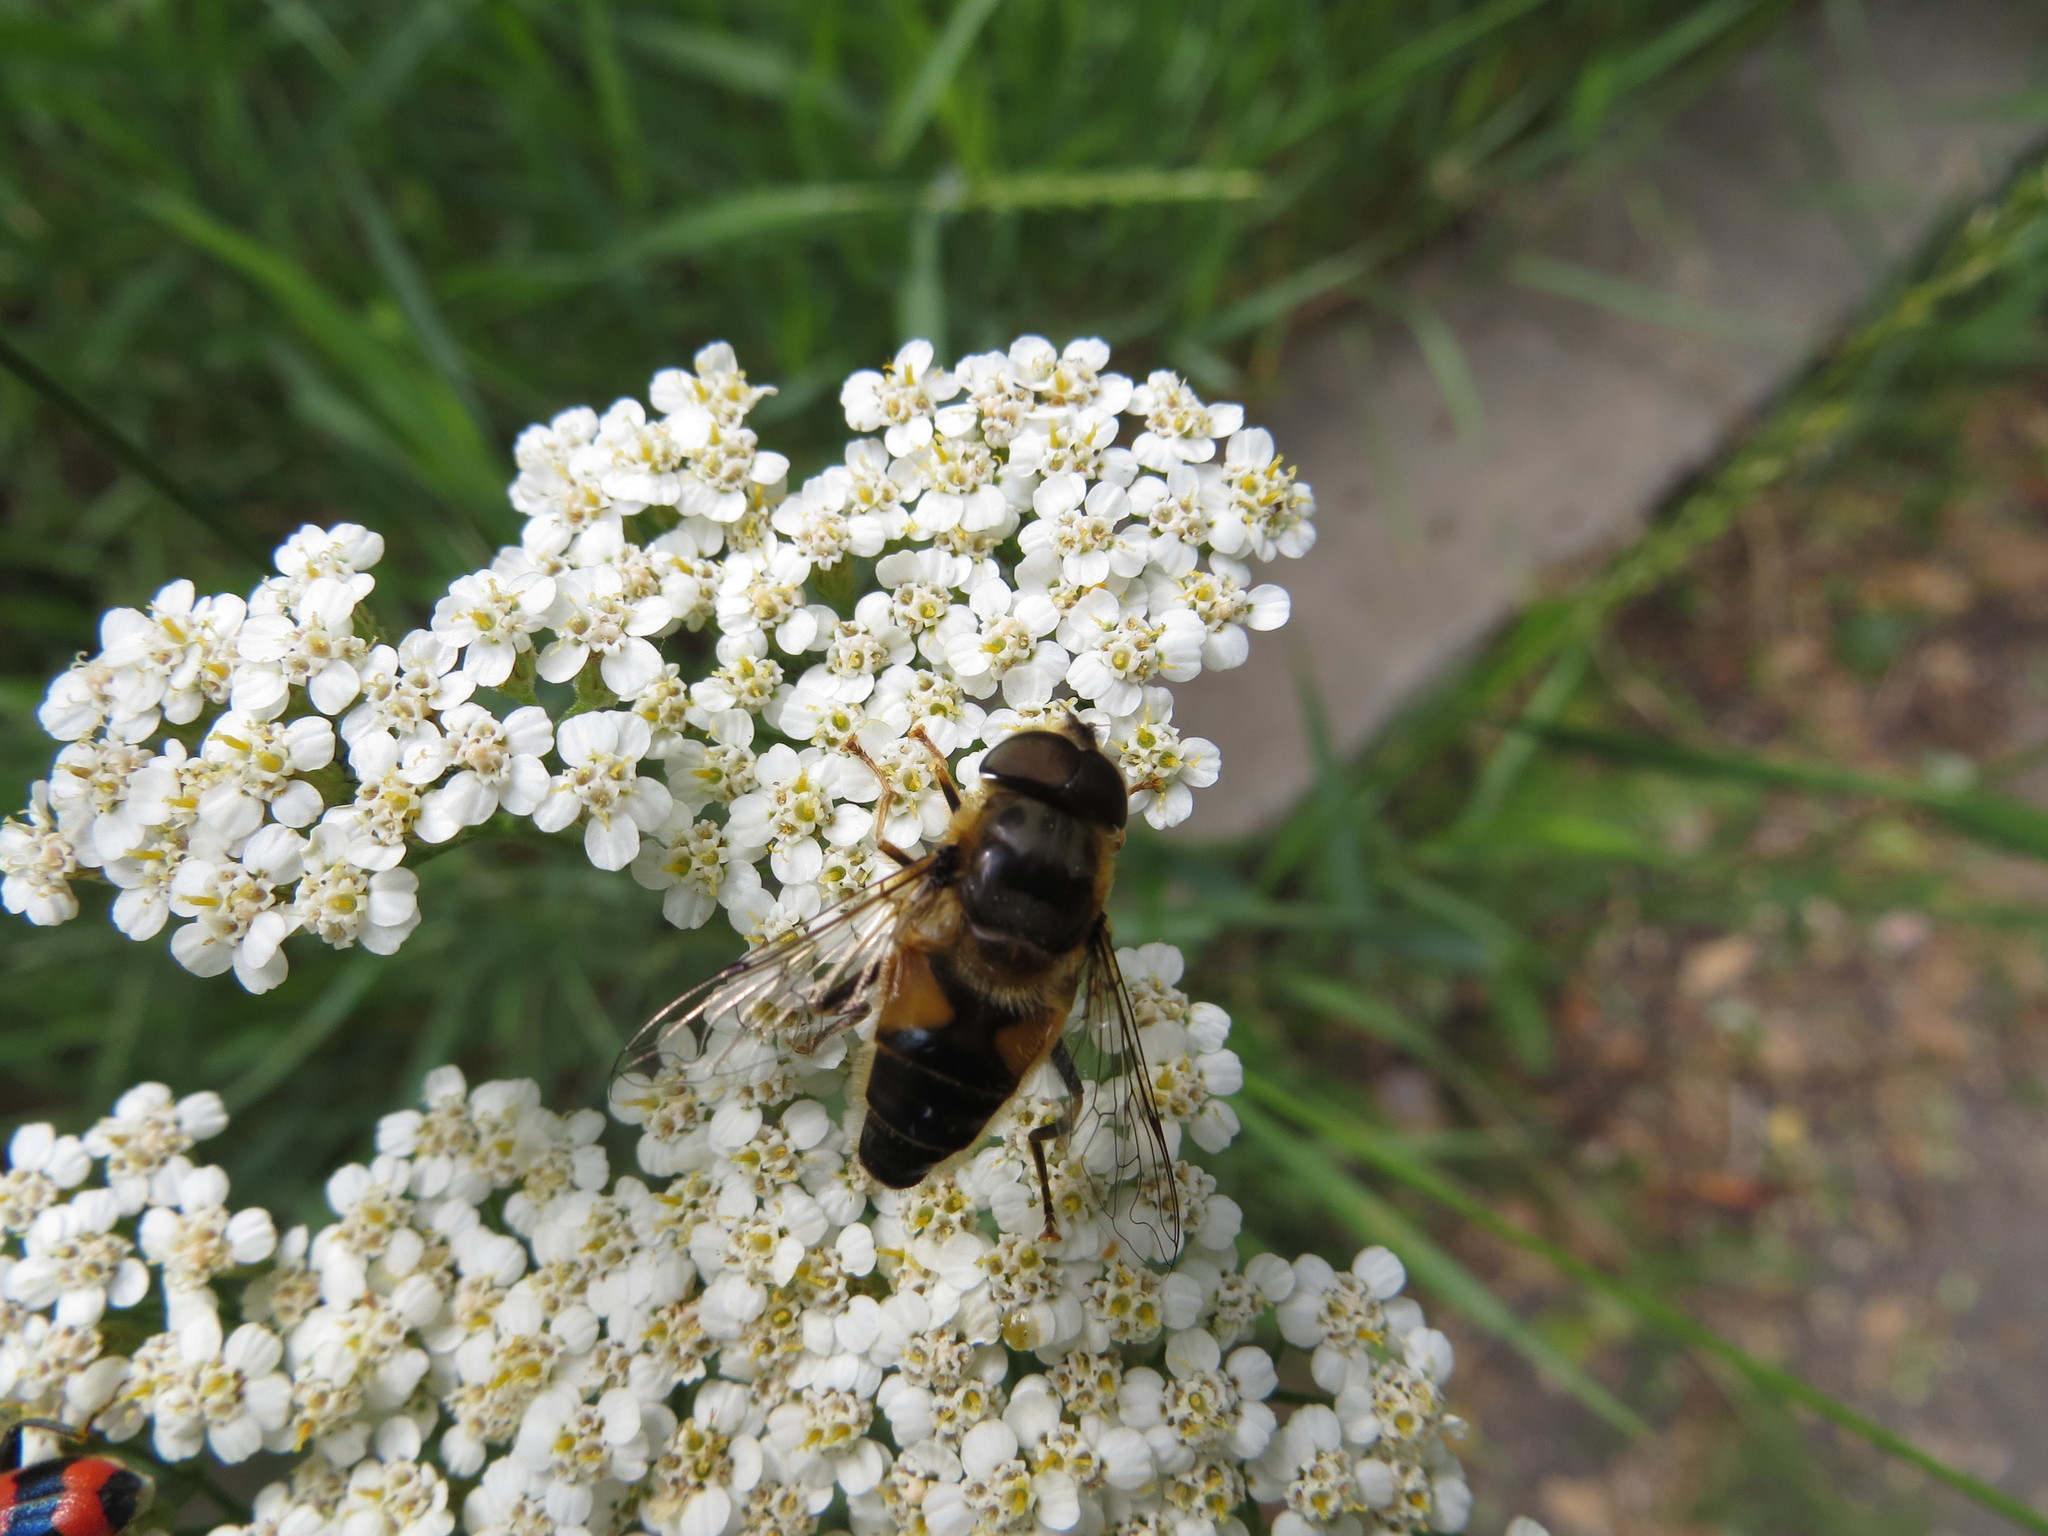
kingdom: Animalia
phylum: Arthropoda
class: Insecta
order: Diptera
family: Syrphidae
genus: Eristalis
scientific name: Eristalis pertinax
